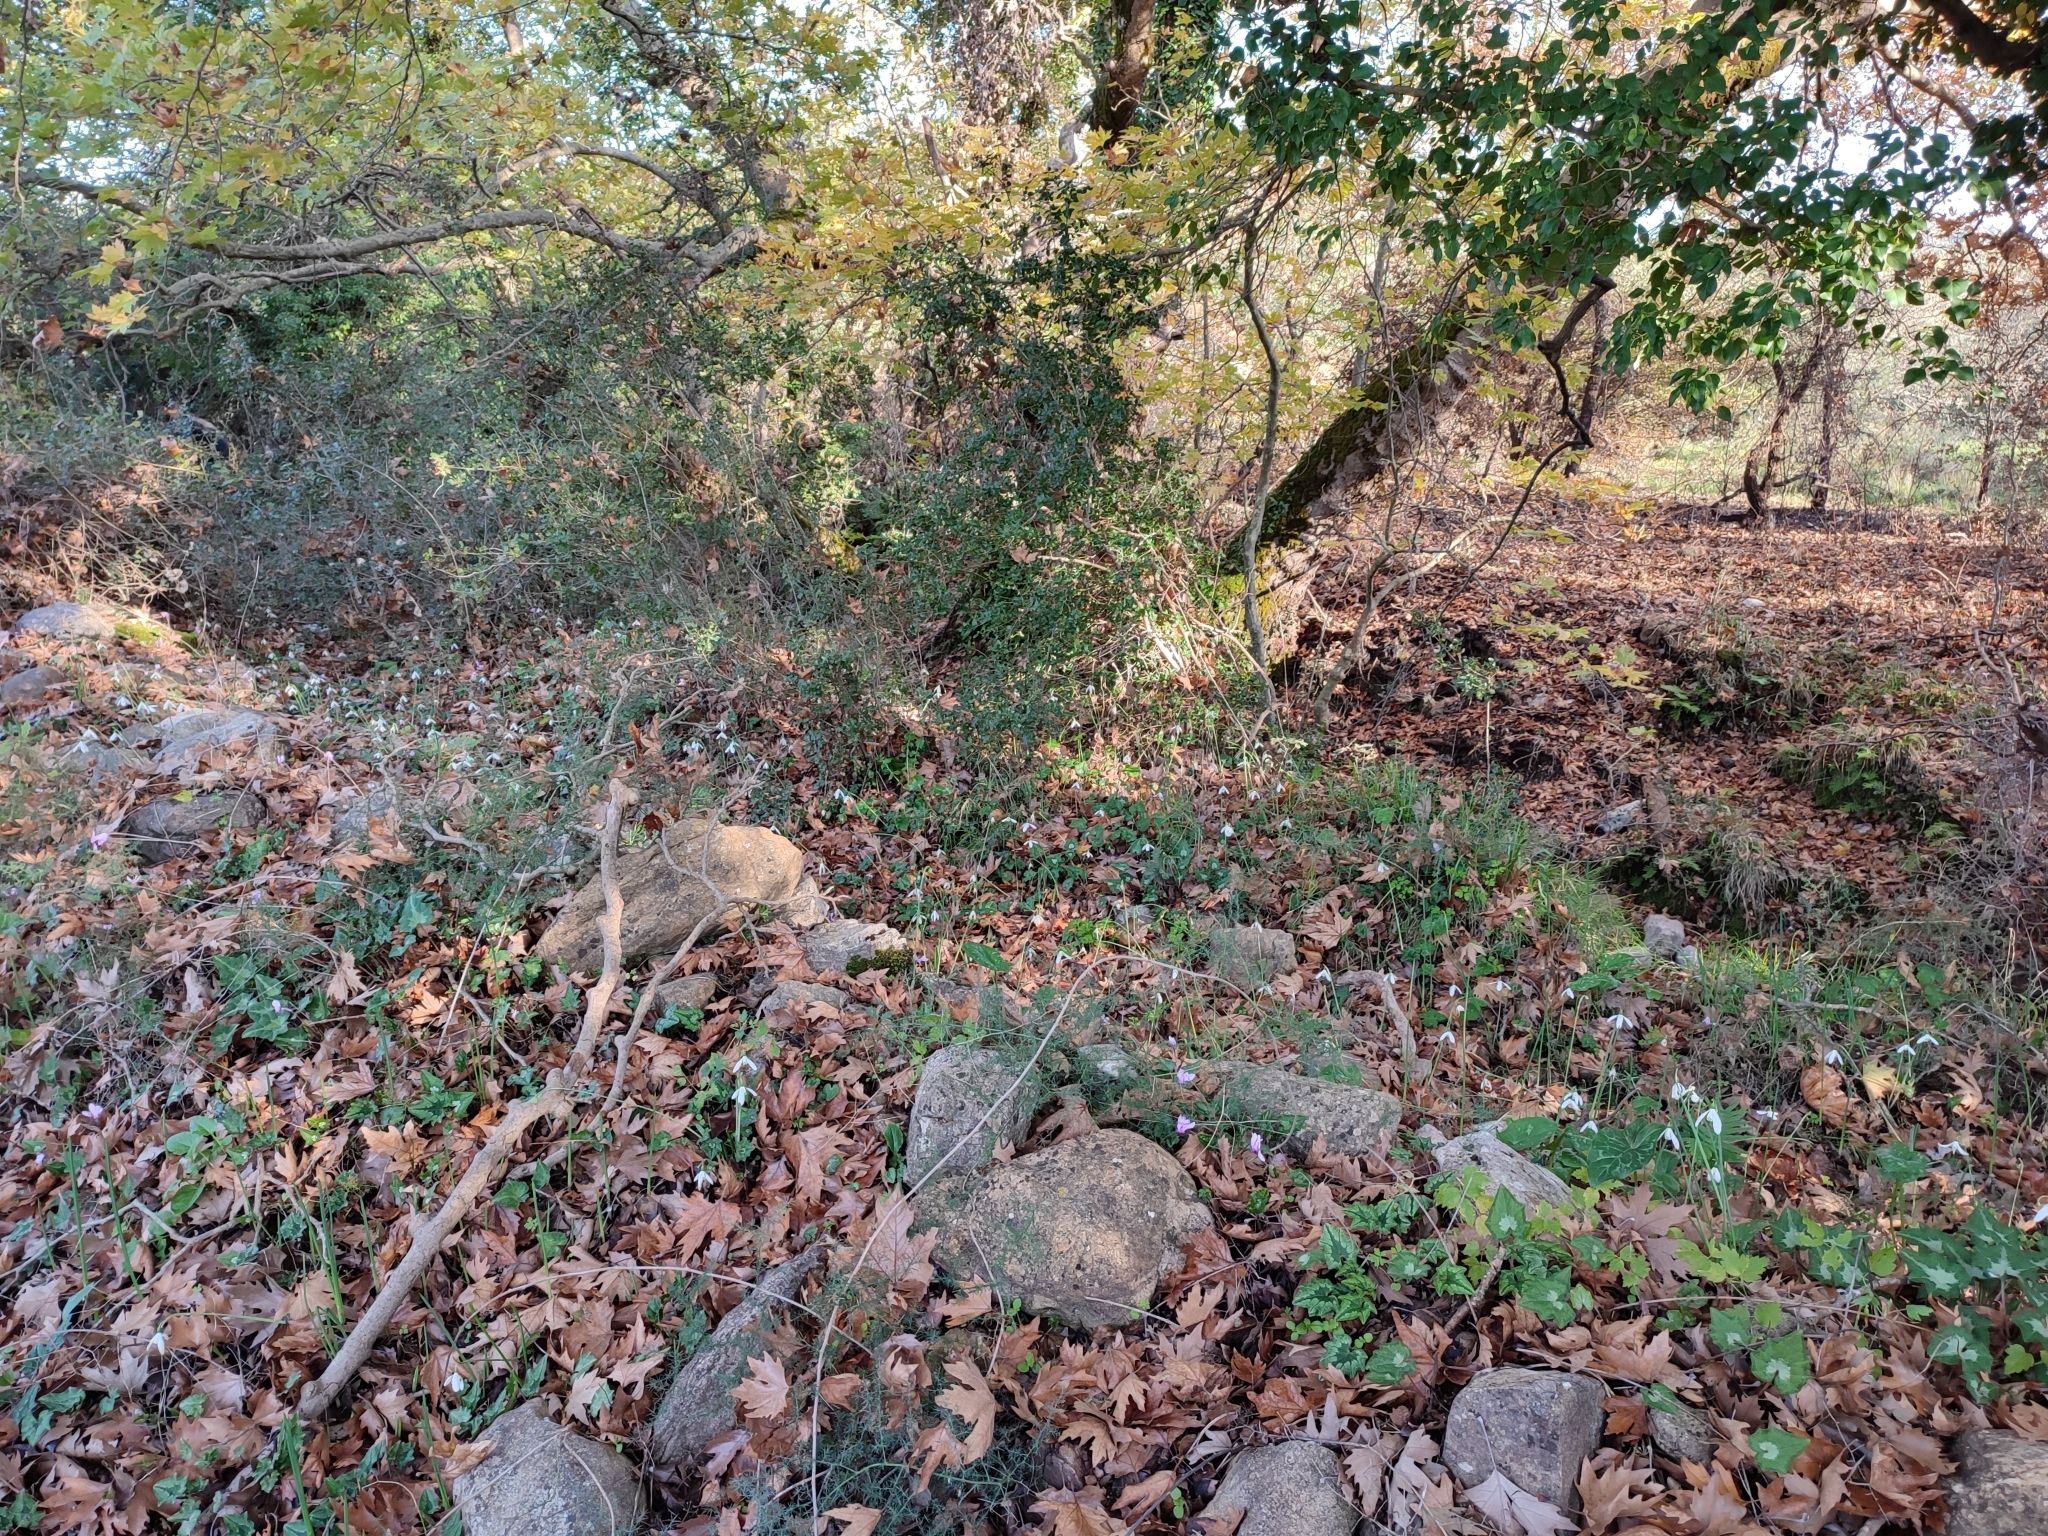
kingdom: Plantae
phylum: Tracheophyta
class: Liliopsida
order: Asparagales
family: Amaryllidaceae
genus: Galanthus
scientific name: Galanthus reginae-olgae
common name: Queen olga's snowdrop
